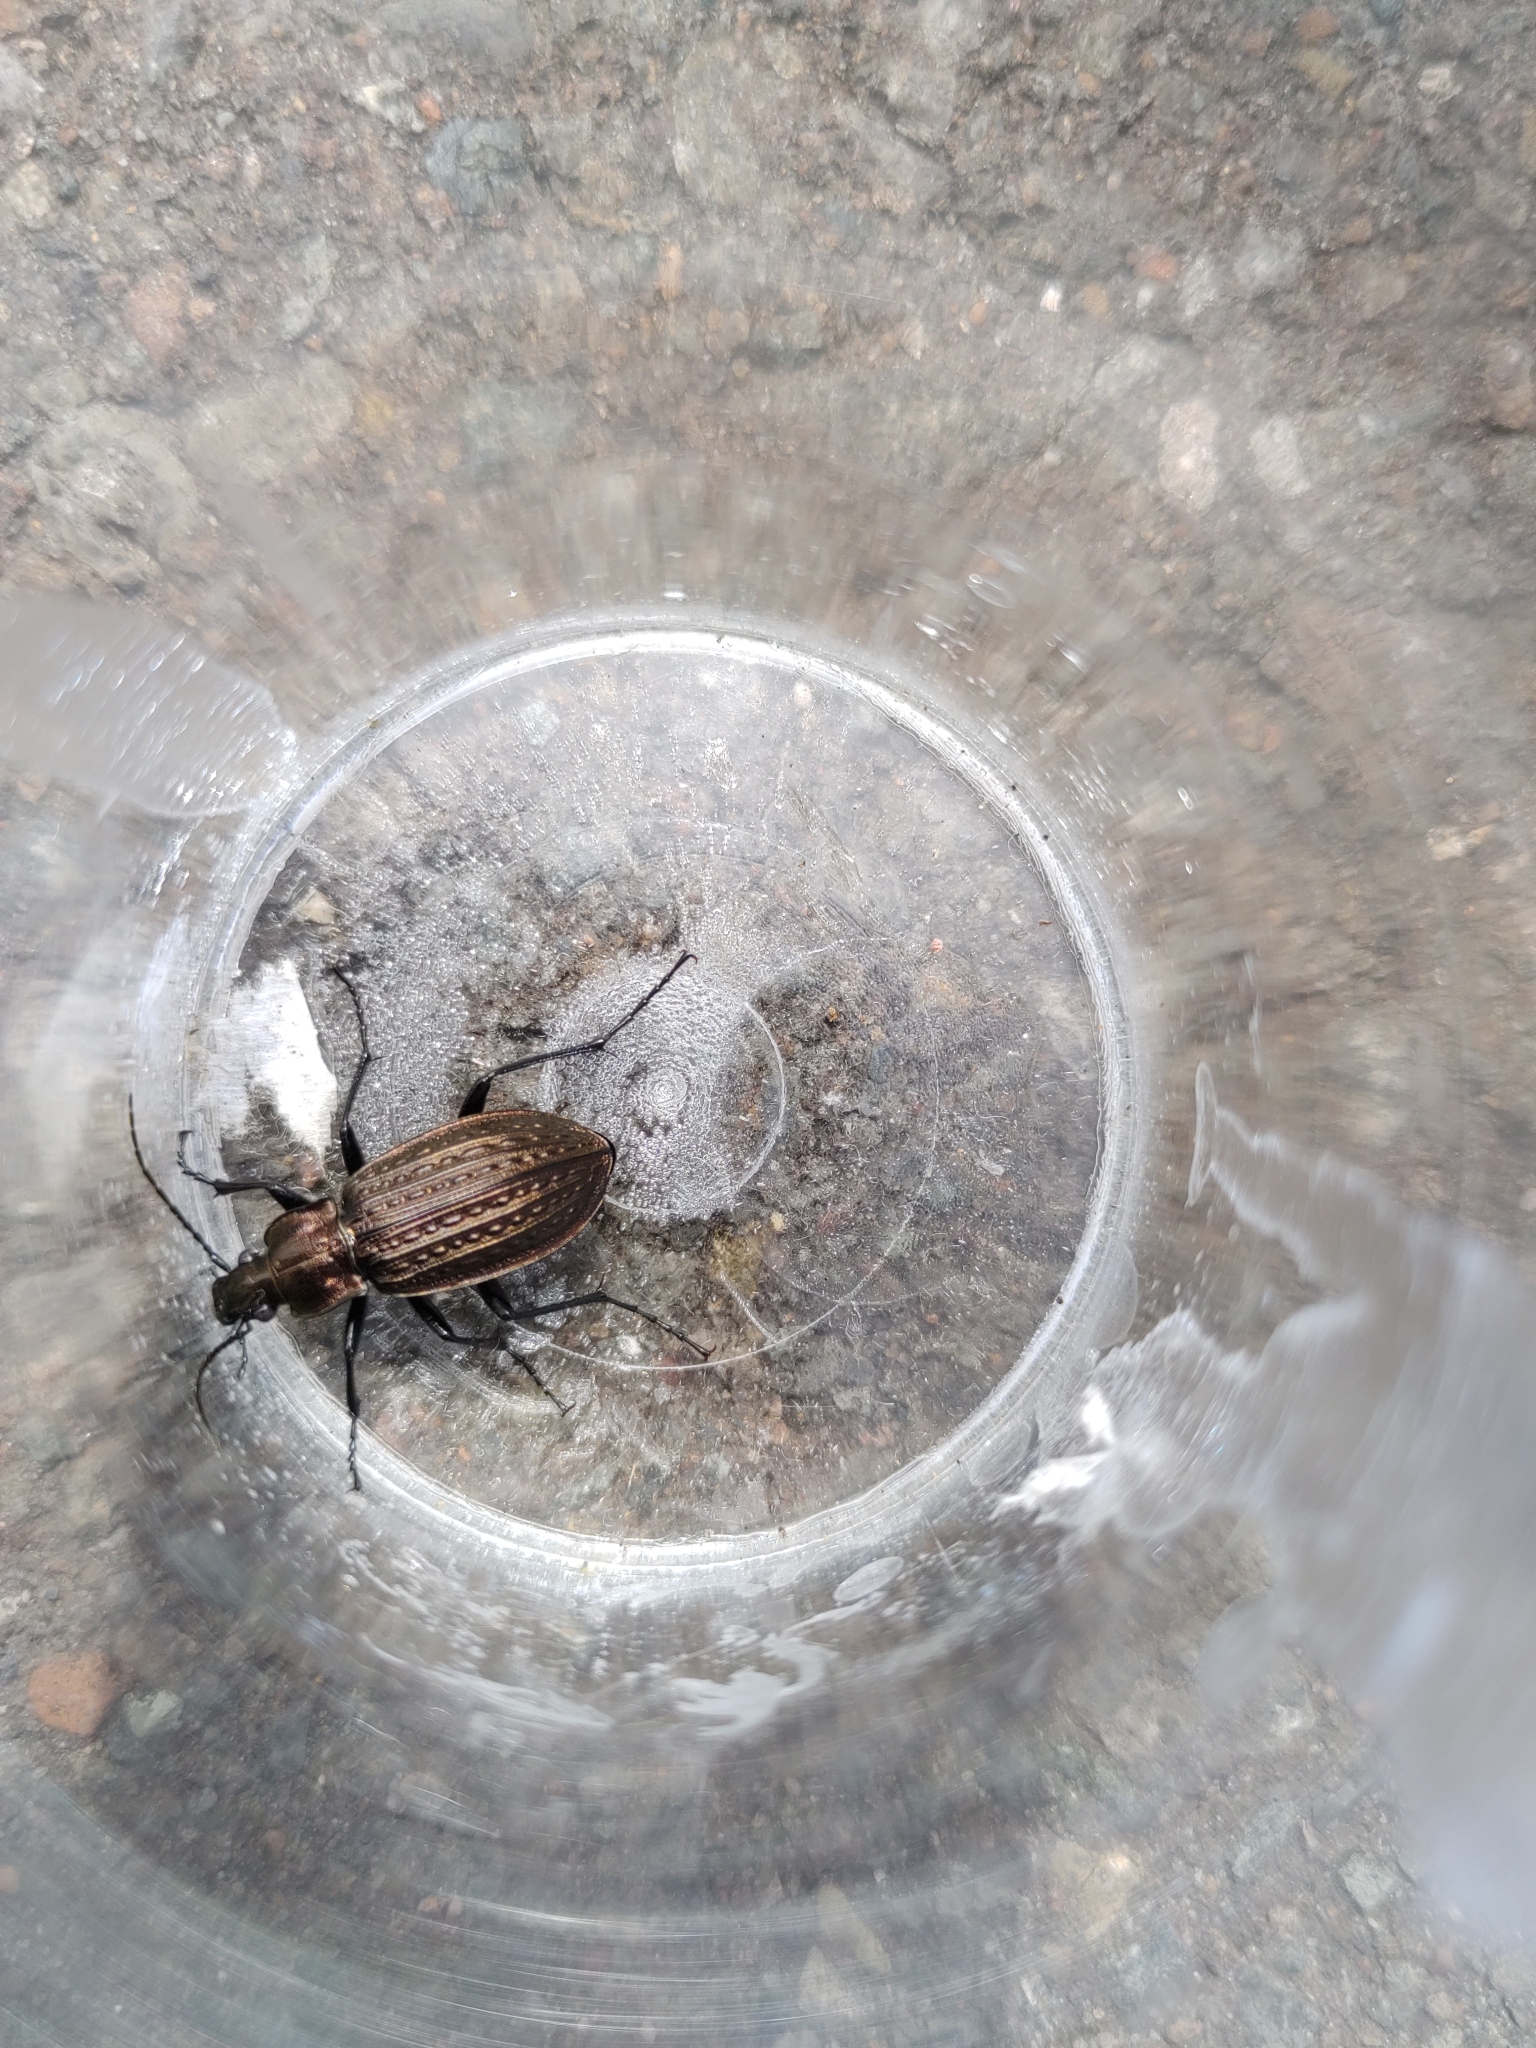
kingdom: Animalia
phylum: Arthropoda
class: Insecta
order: Coleoptera
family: Carabidae
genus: Carabus
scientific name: Carabus granulatus
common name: Granulate ground beetle
